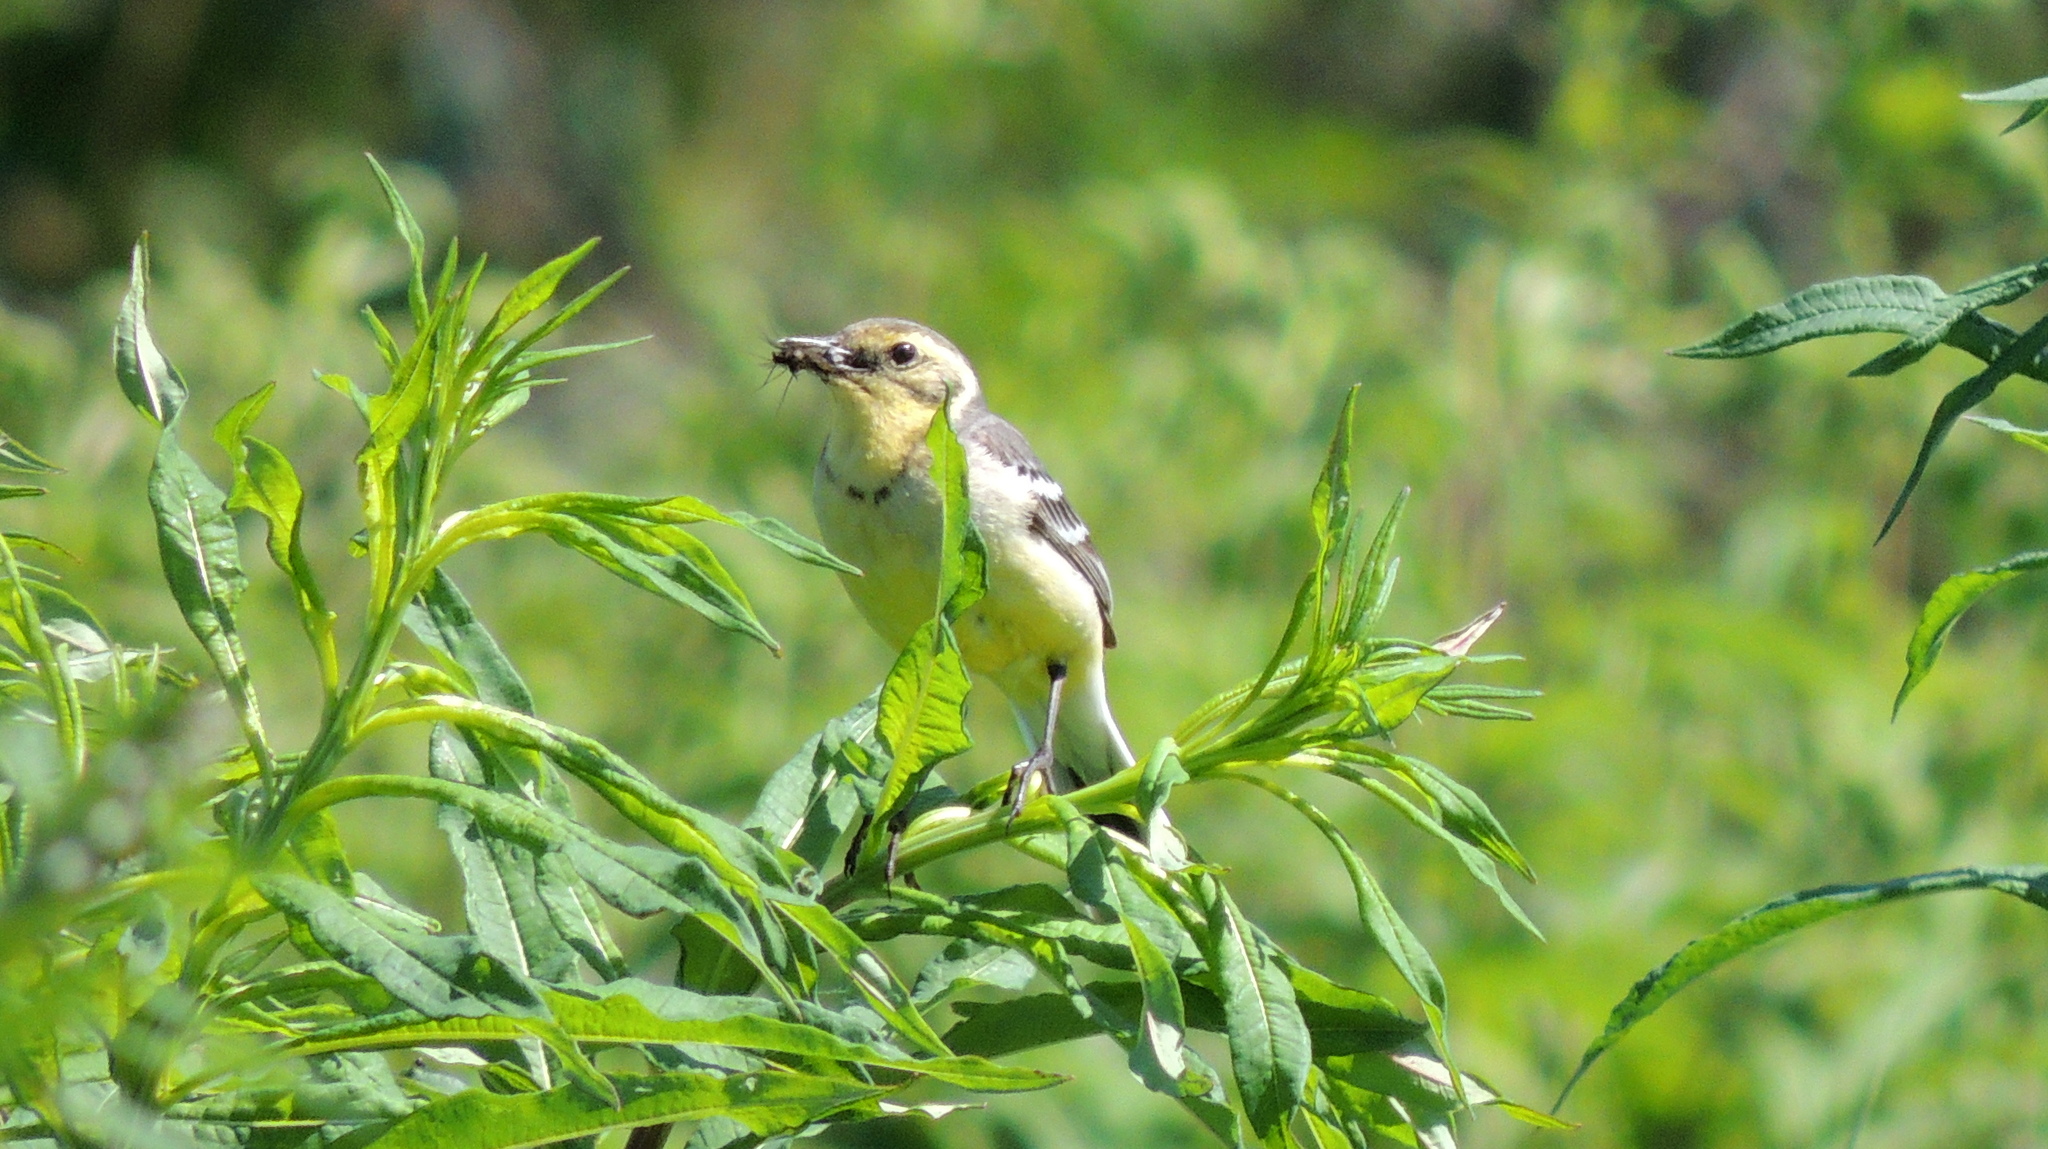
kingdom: Animalia
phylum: Chordata
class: Aves
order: Passeriformes
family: Motacillidae
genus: Motacilla
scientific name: Motacilla citreola
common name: Citrine wagtail
